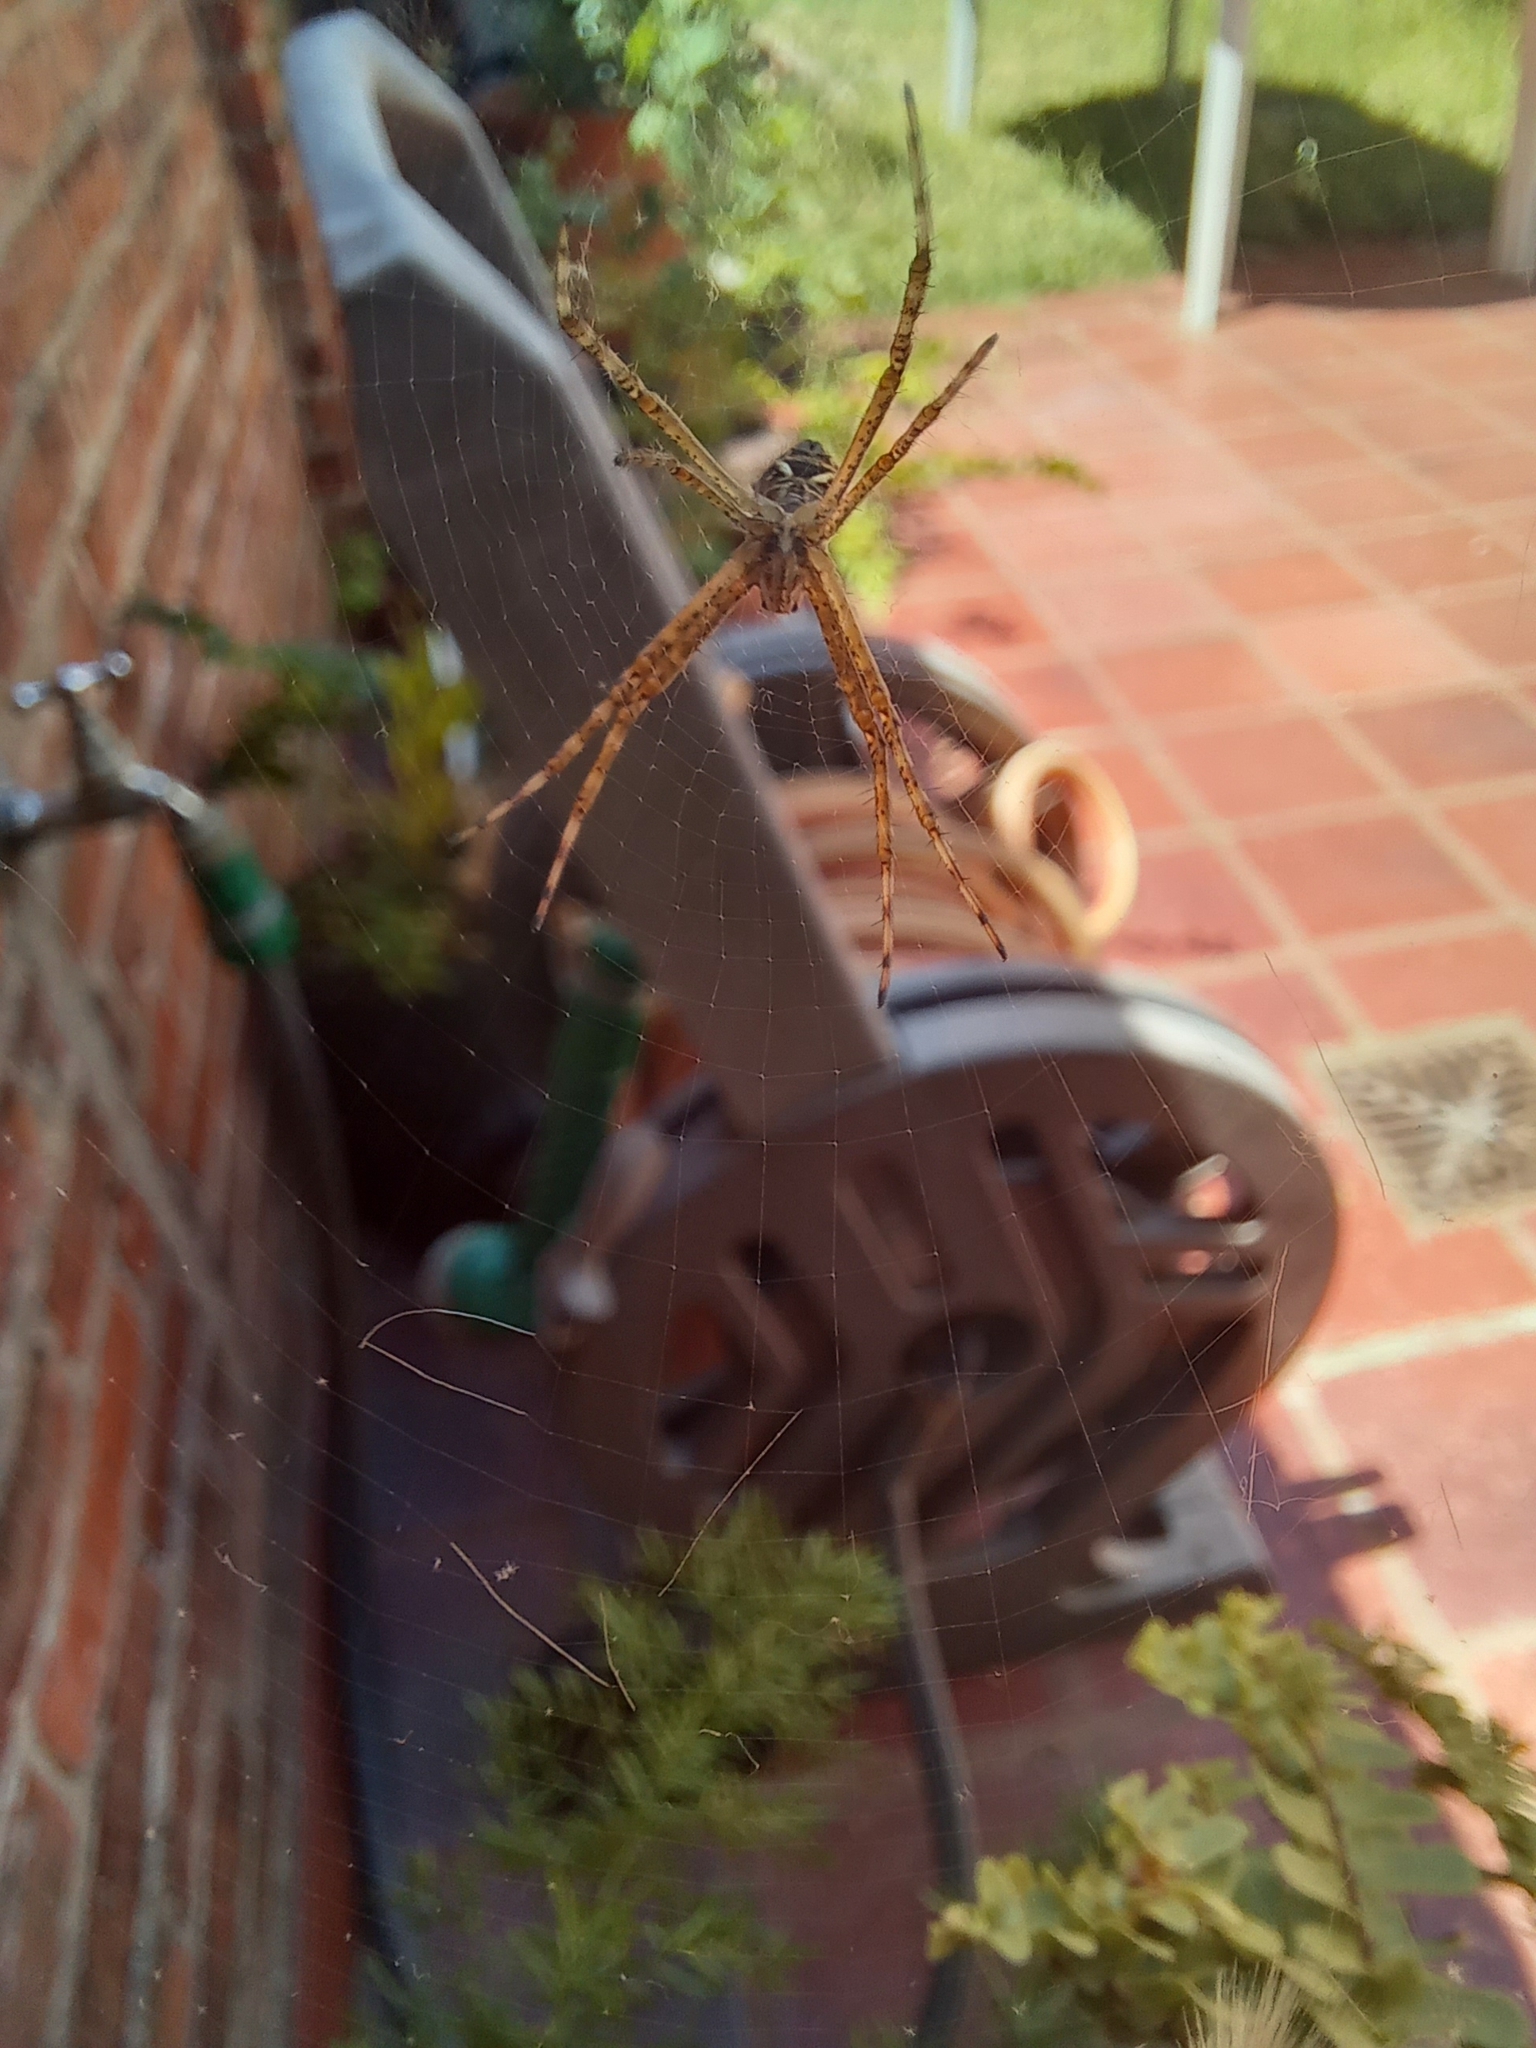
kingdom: Animalia
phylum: Arthropoda
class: Arachnida
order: Araneae
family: Araneidae
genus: Argiope
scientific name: Argiope argentata
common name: Orb weavers
